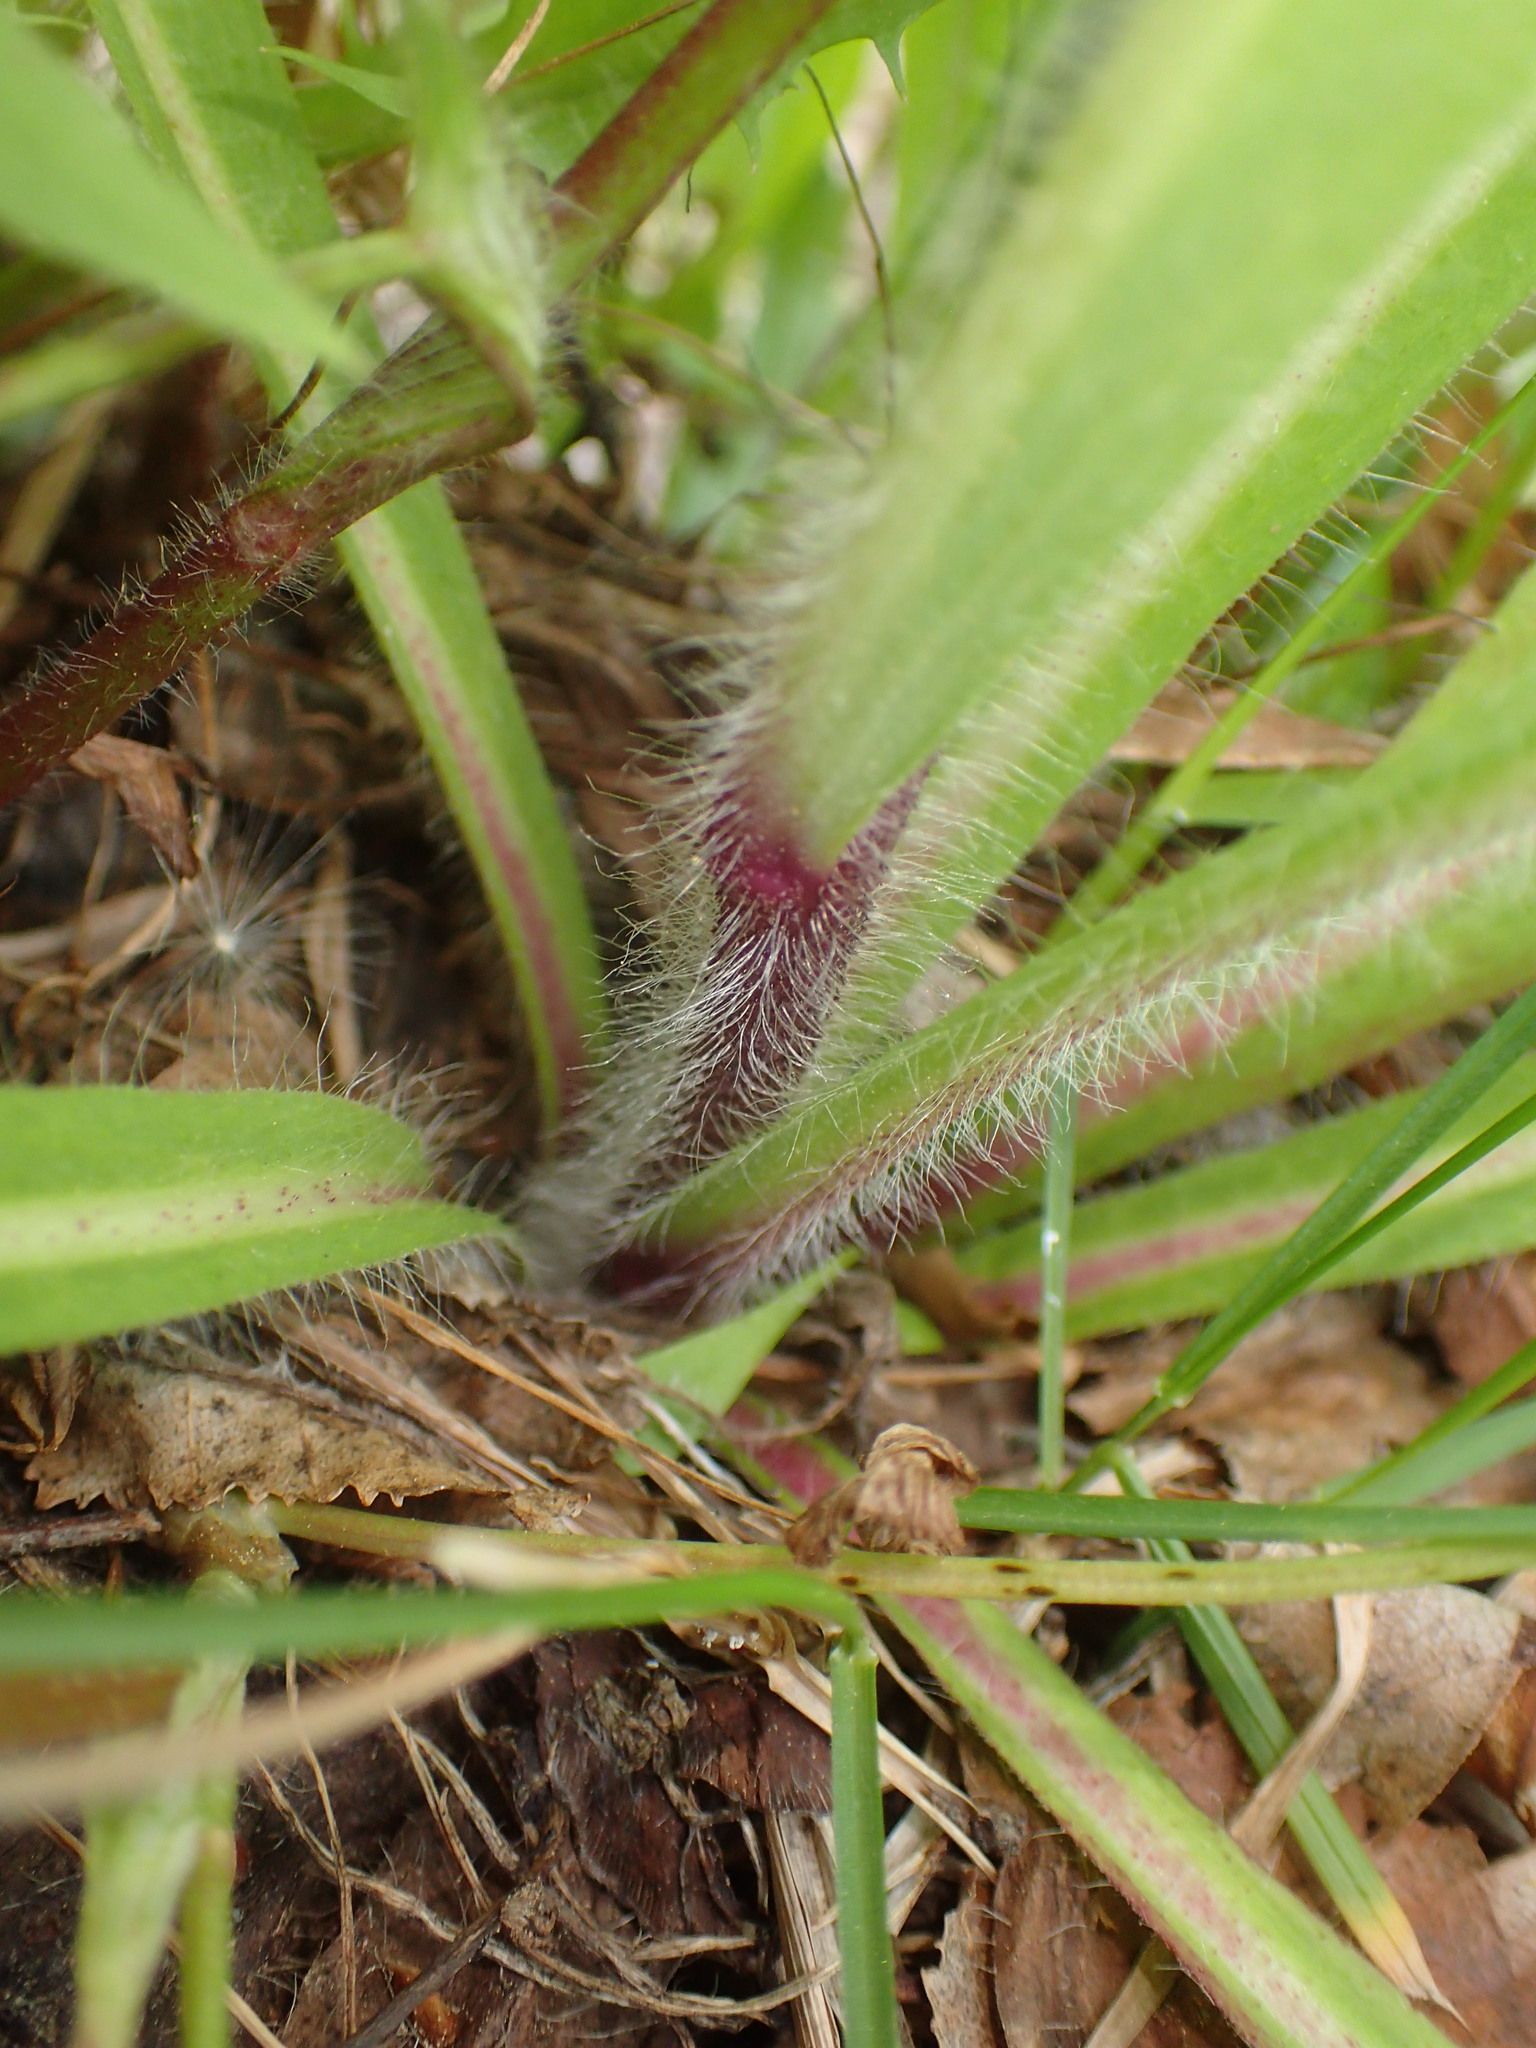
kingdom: Plantae
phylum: Tracheophyta
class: Magnoliopsida
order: Asterales
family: Asteraceae
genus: Pilosella
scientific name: Pilosella caespitosa
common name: Yellow fox-and-cubs
